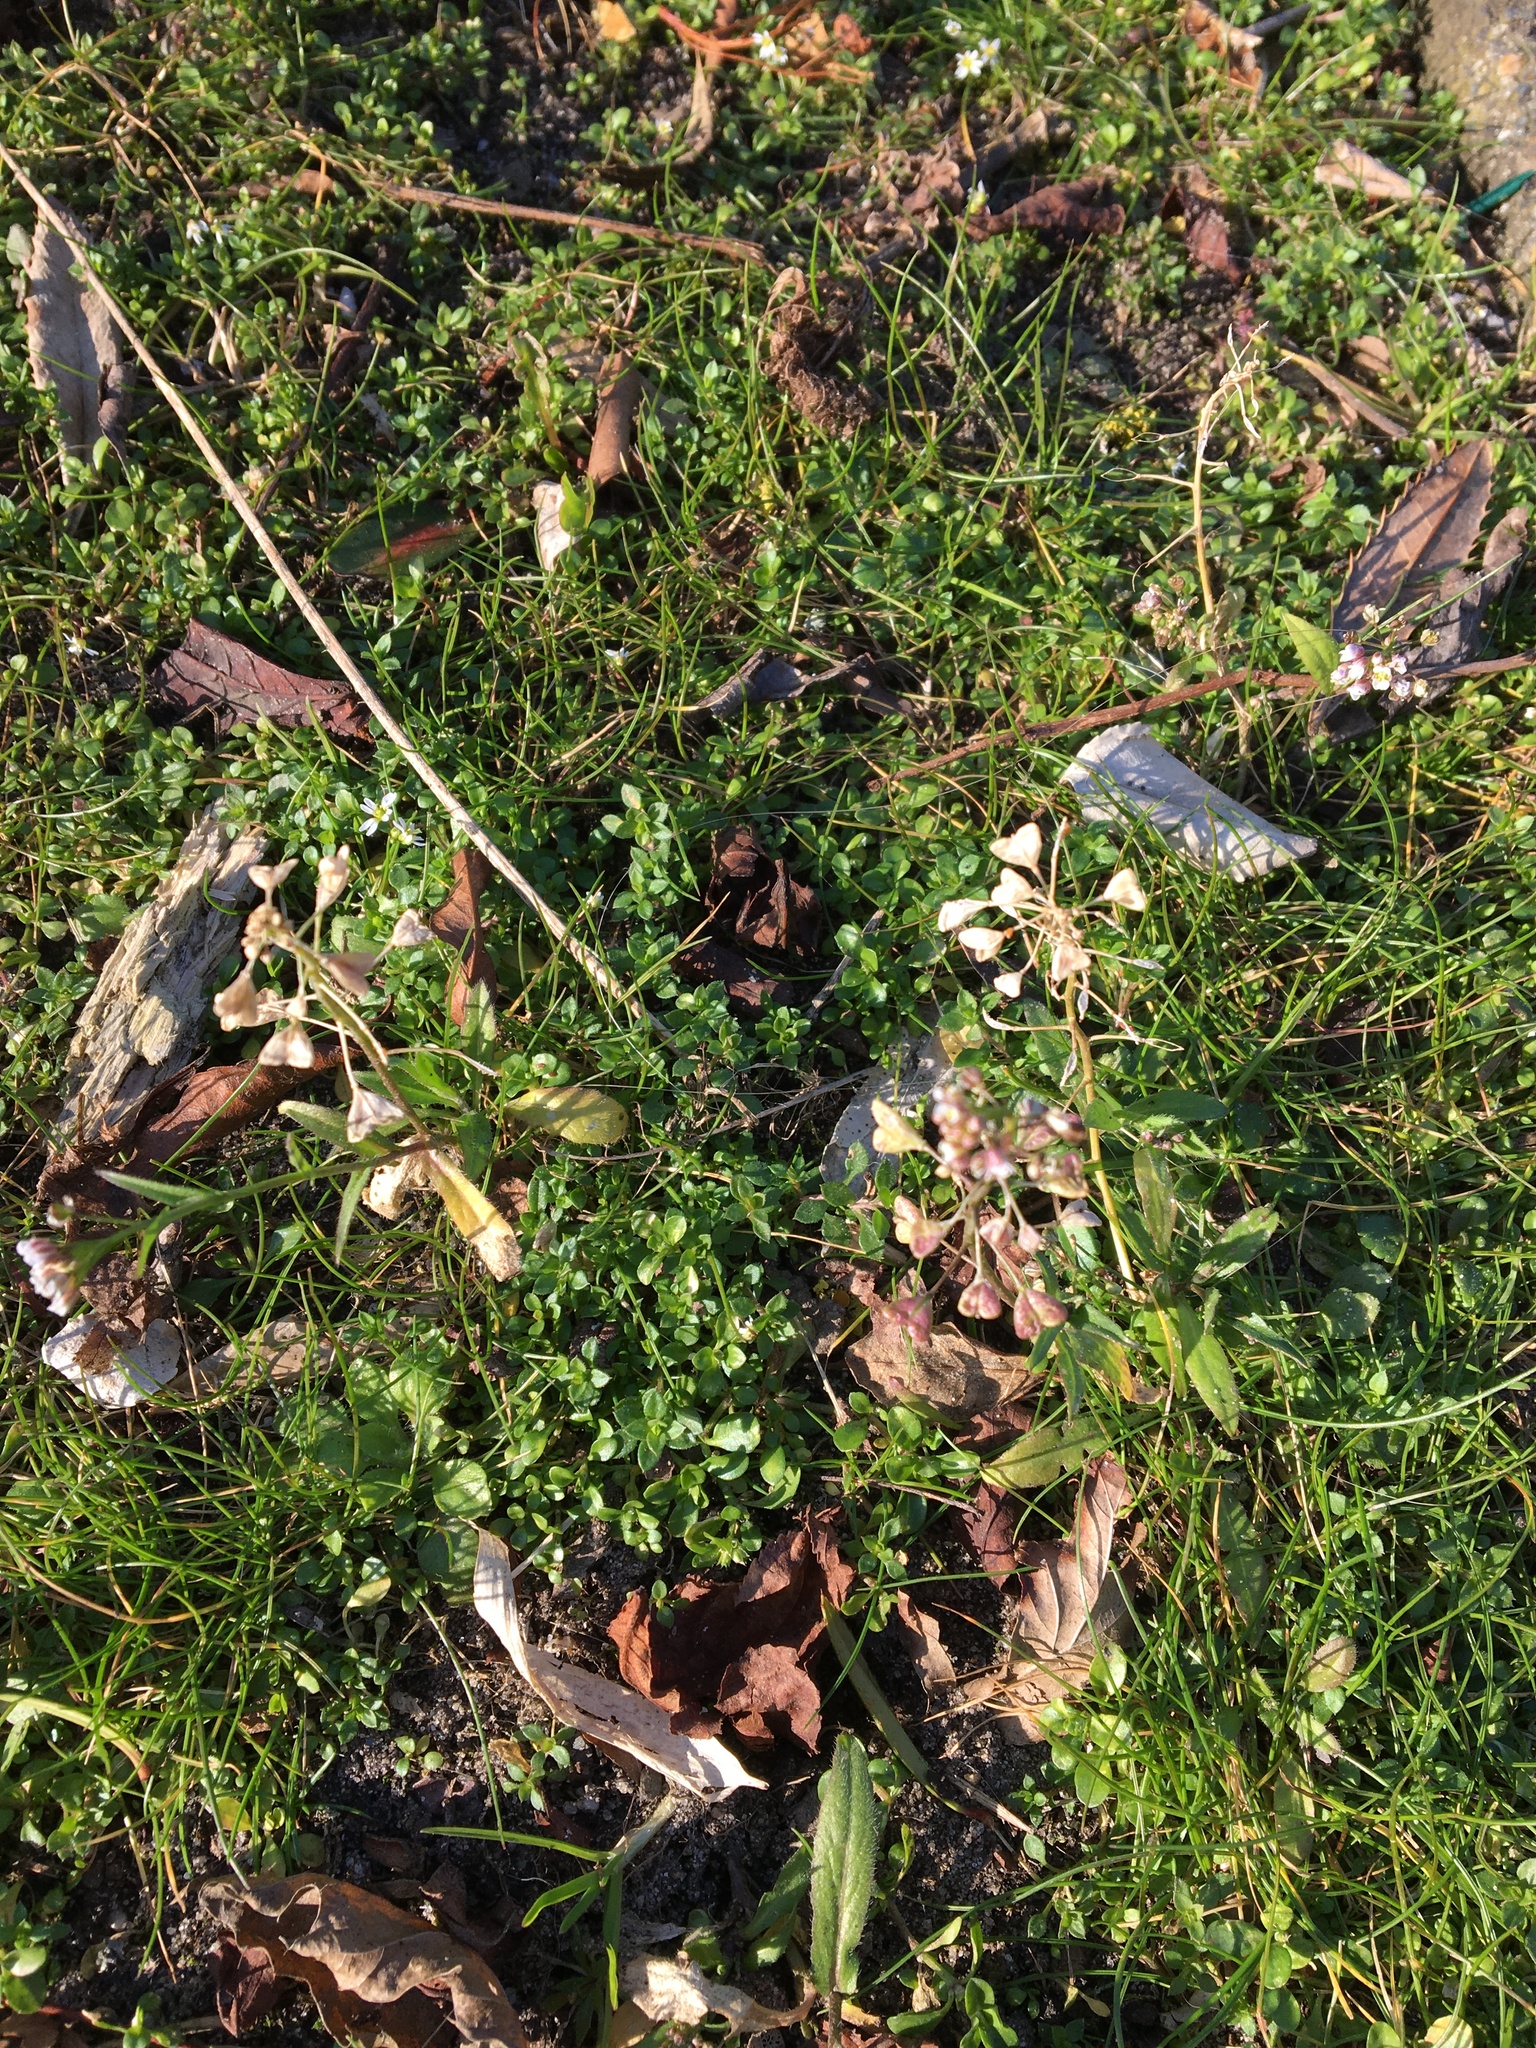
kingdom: Plantae
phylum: Tracheophyta
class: Magnoliopsida
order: Brassicales
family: Brassicaceae
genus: Capsella
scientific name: Capsella bursa-pastoris
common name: Shepherd's purse
